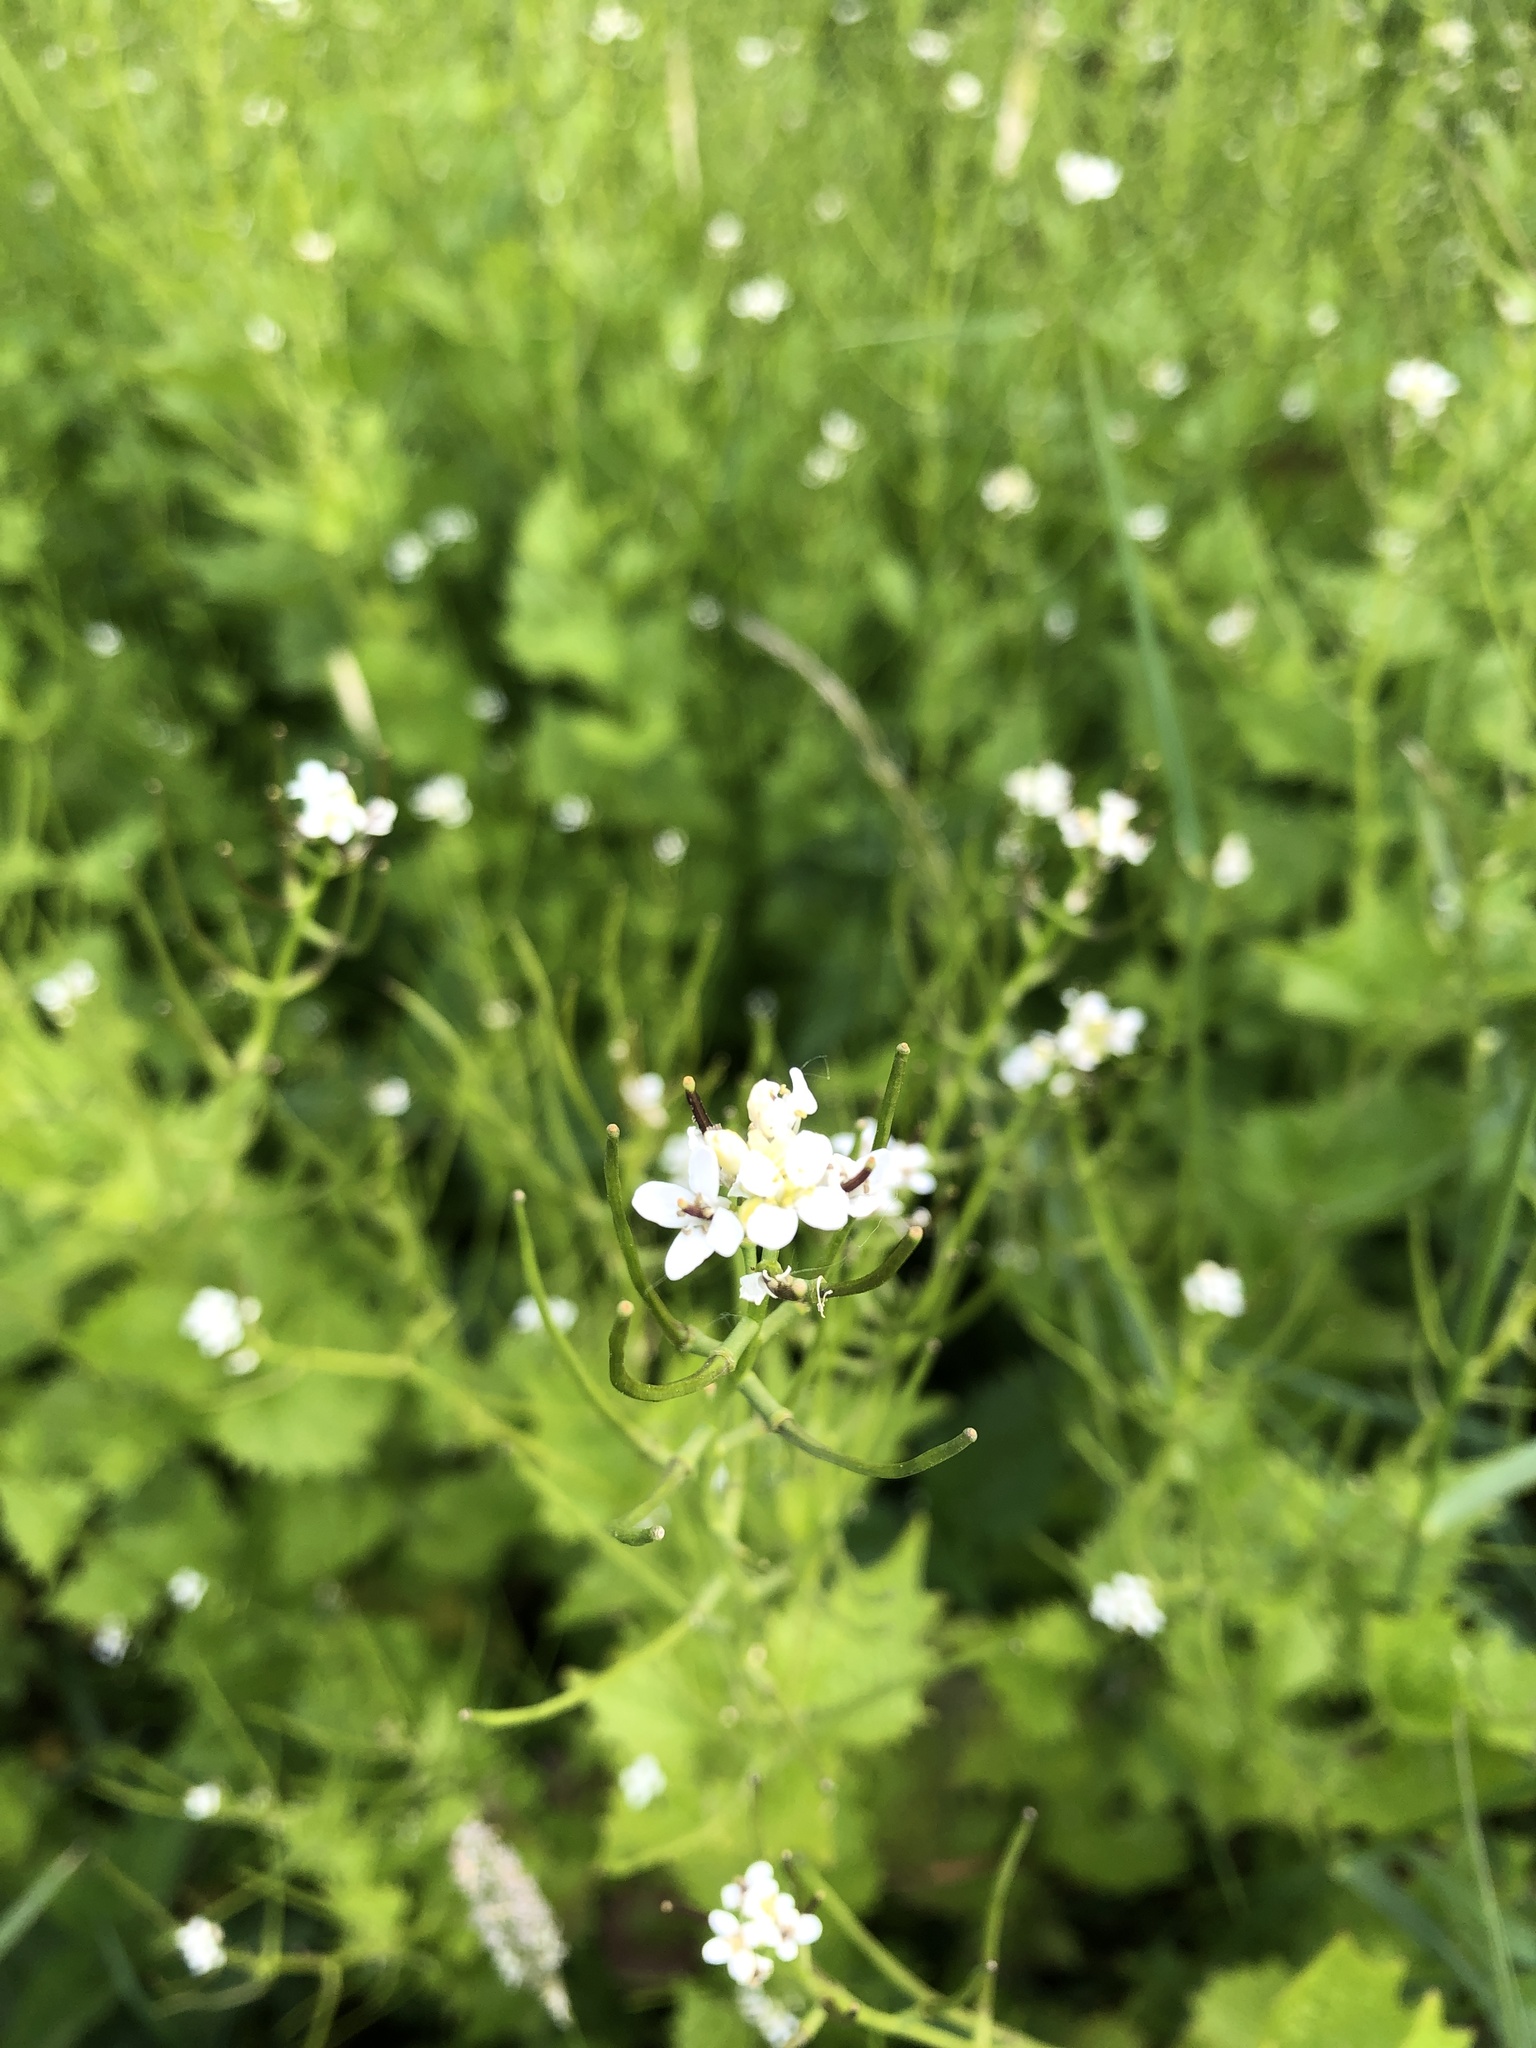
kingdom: Plantae
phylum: Tracheophyta
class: Magnoliopsida
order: Brassicales
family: Brassicaceae
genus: Alliaria
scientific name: Alliaria petiolata
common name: Garlic mustard
